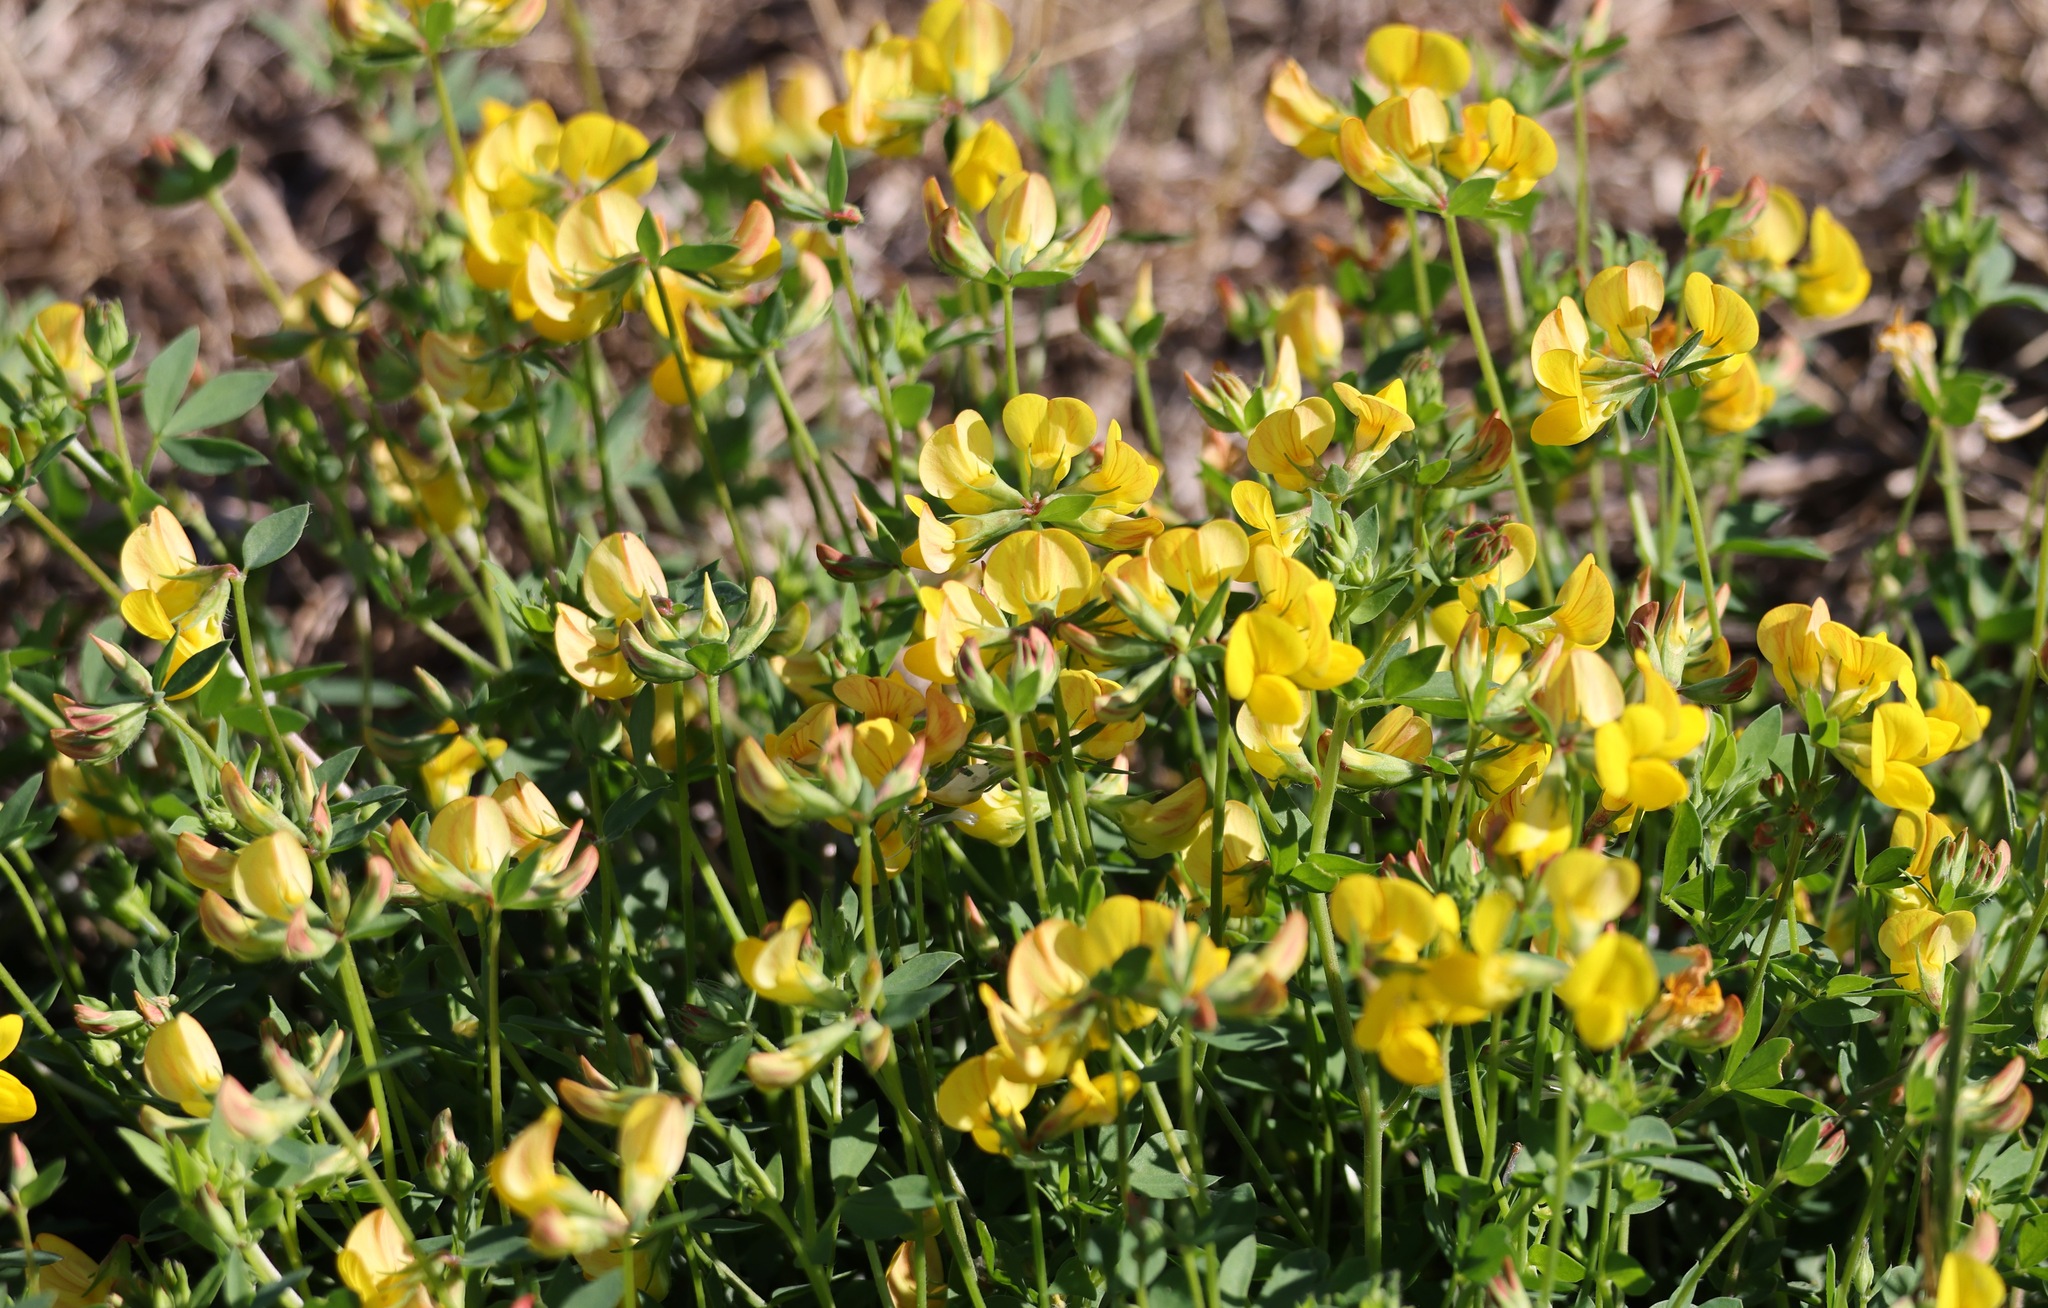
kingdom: Plantae
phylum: Tracheophyta
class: Magnoliopsida
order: Fabales
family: Fabaceae
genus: Lotus
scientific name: Lotus corniculatus
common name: Common bird's-foot-trefoil
